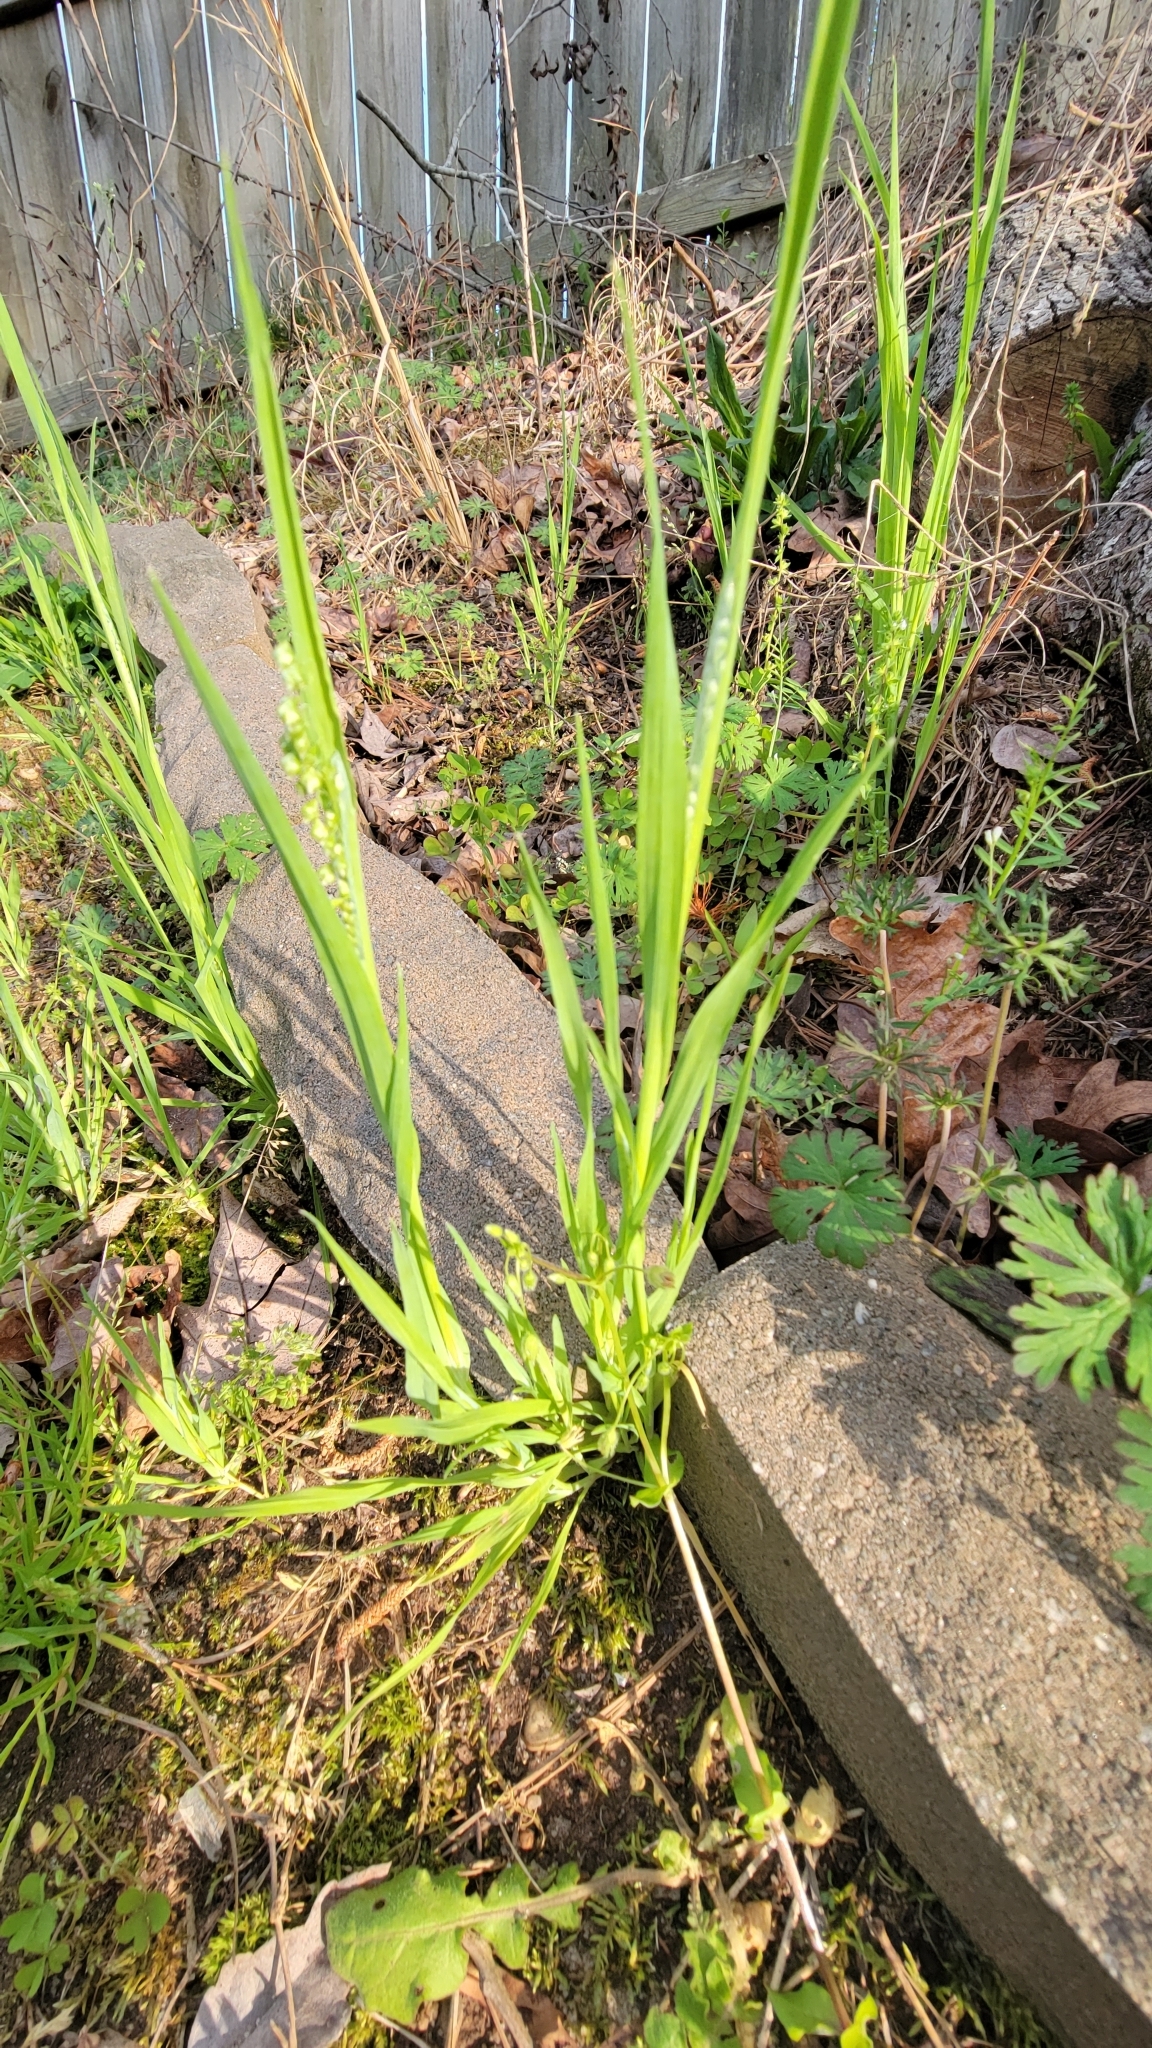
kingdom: Plantae
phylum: Tracheophyta
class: Liliopsida
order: Poales
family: Poaceae
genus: Briza
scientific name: Briza minor
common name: Lesser quaking-grass
